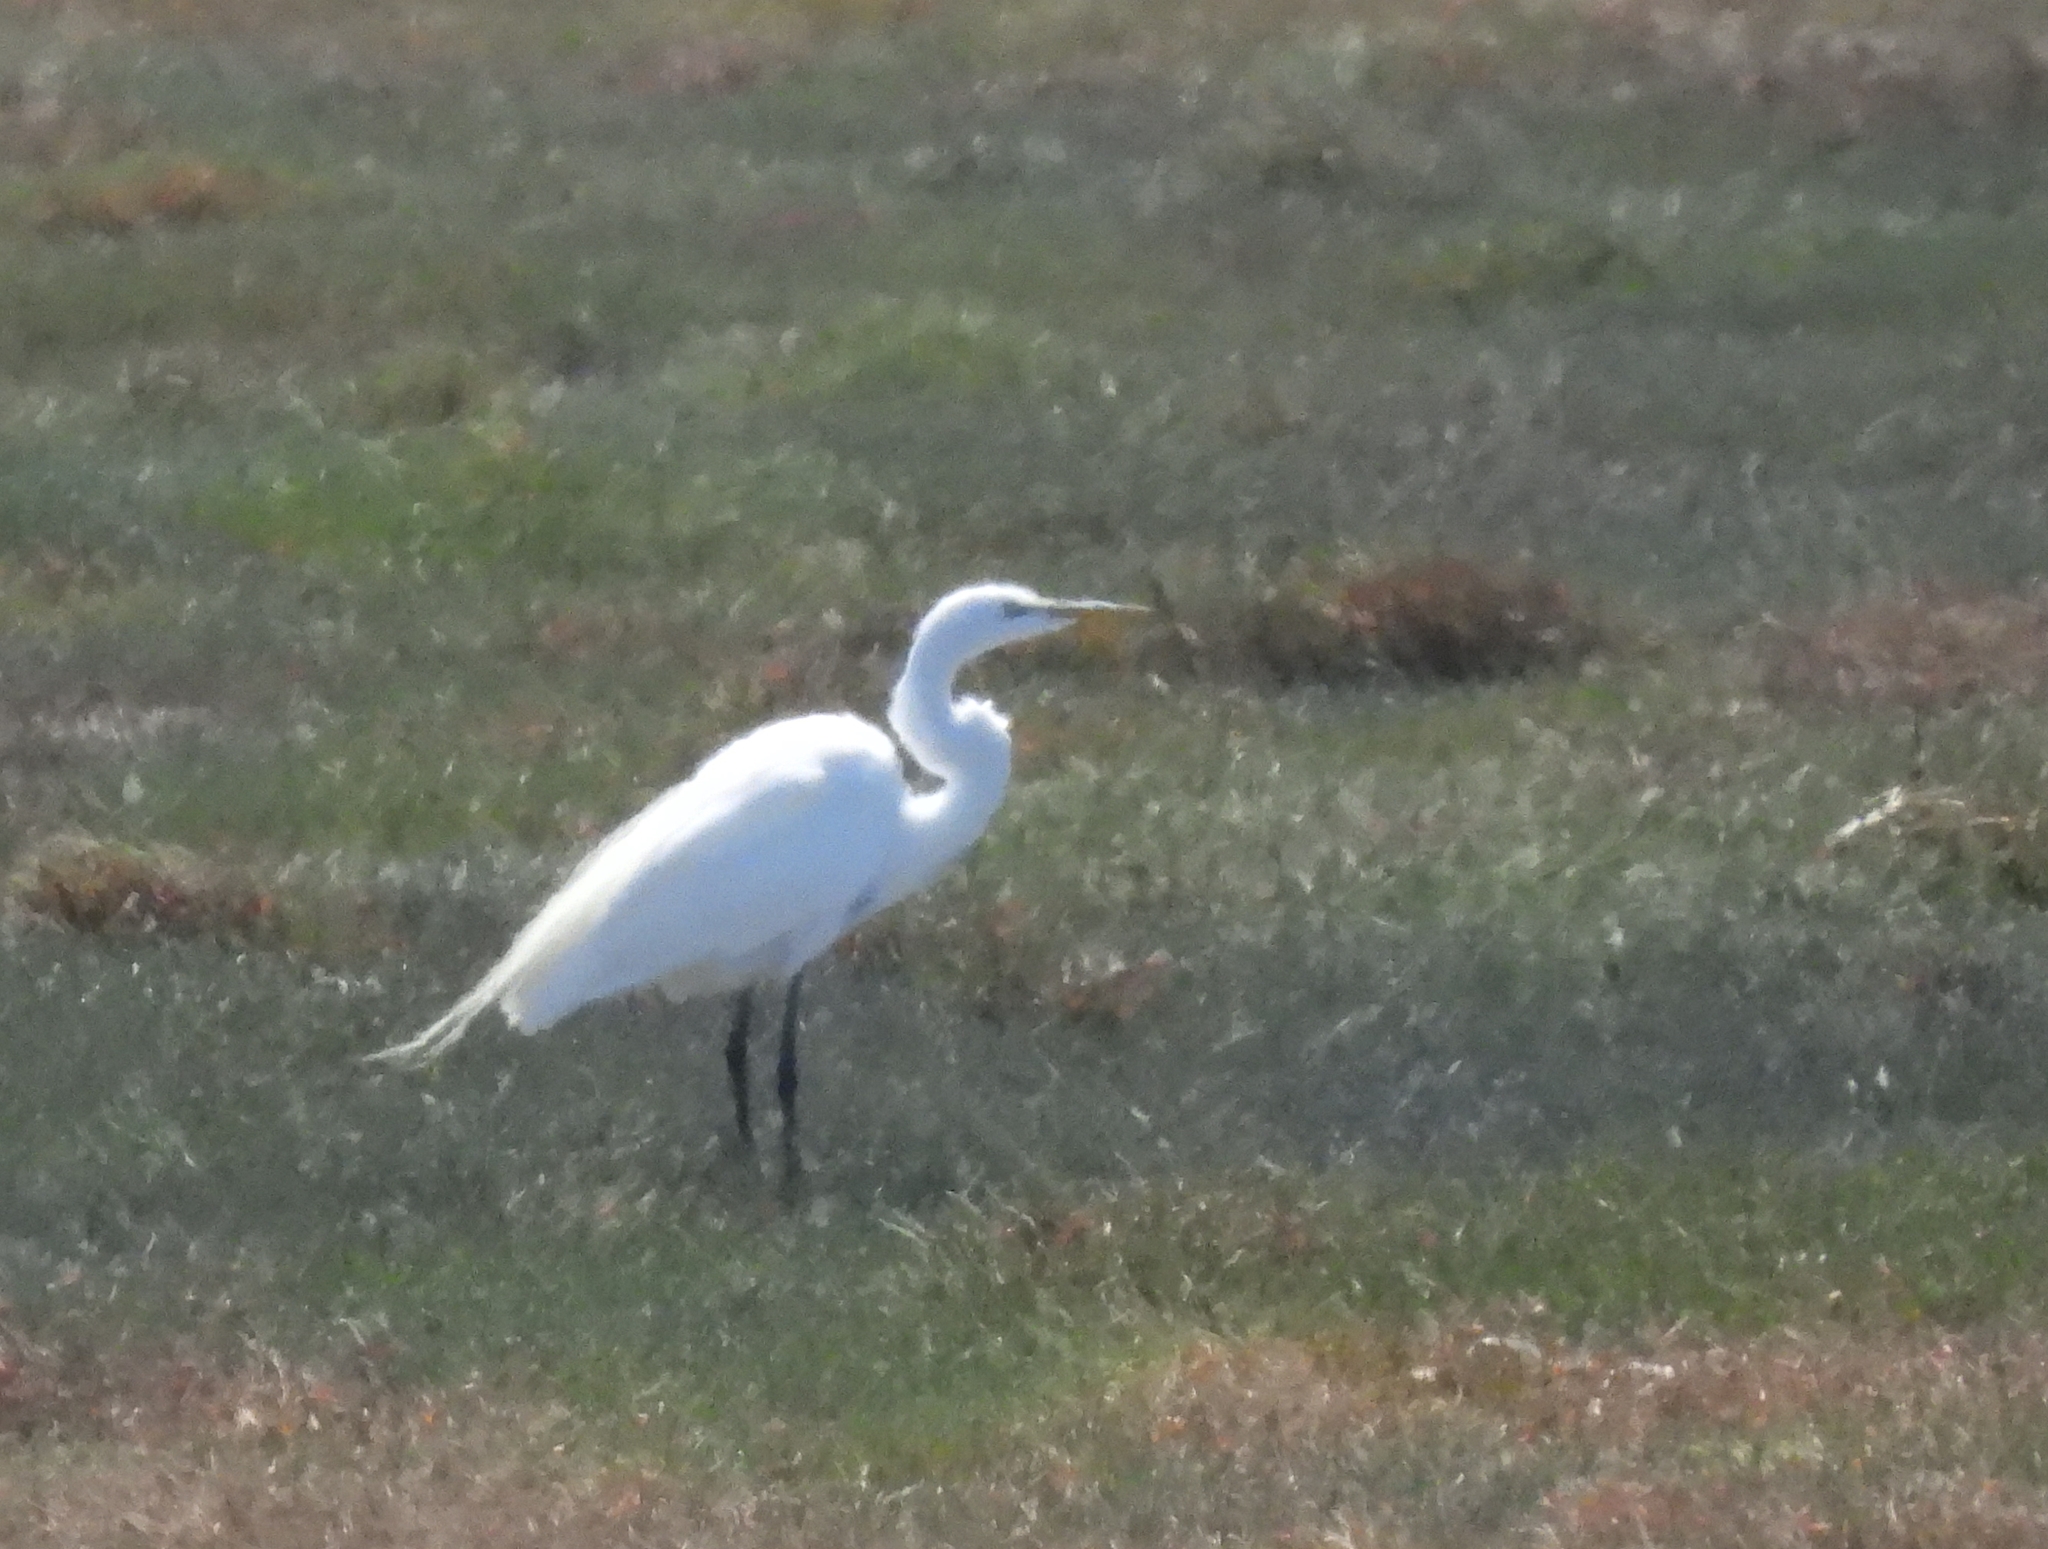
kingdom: Animalia
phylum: Chordata
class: Aves
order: Pelecaniformes
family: Ardeidae
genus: Ardea
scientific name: Ardea alba
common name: Great egret
